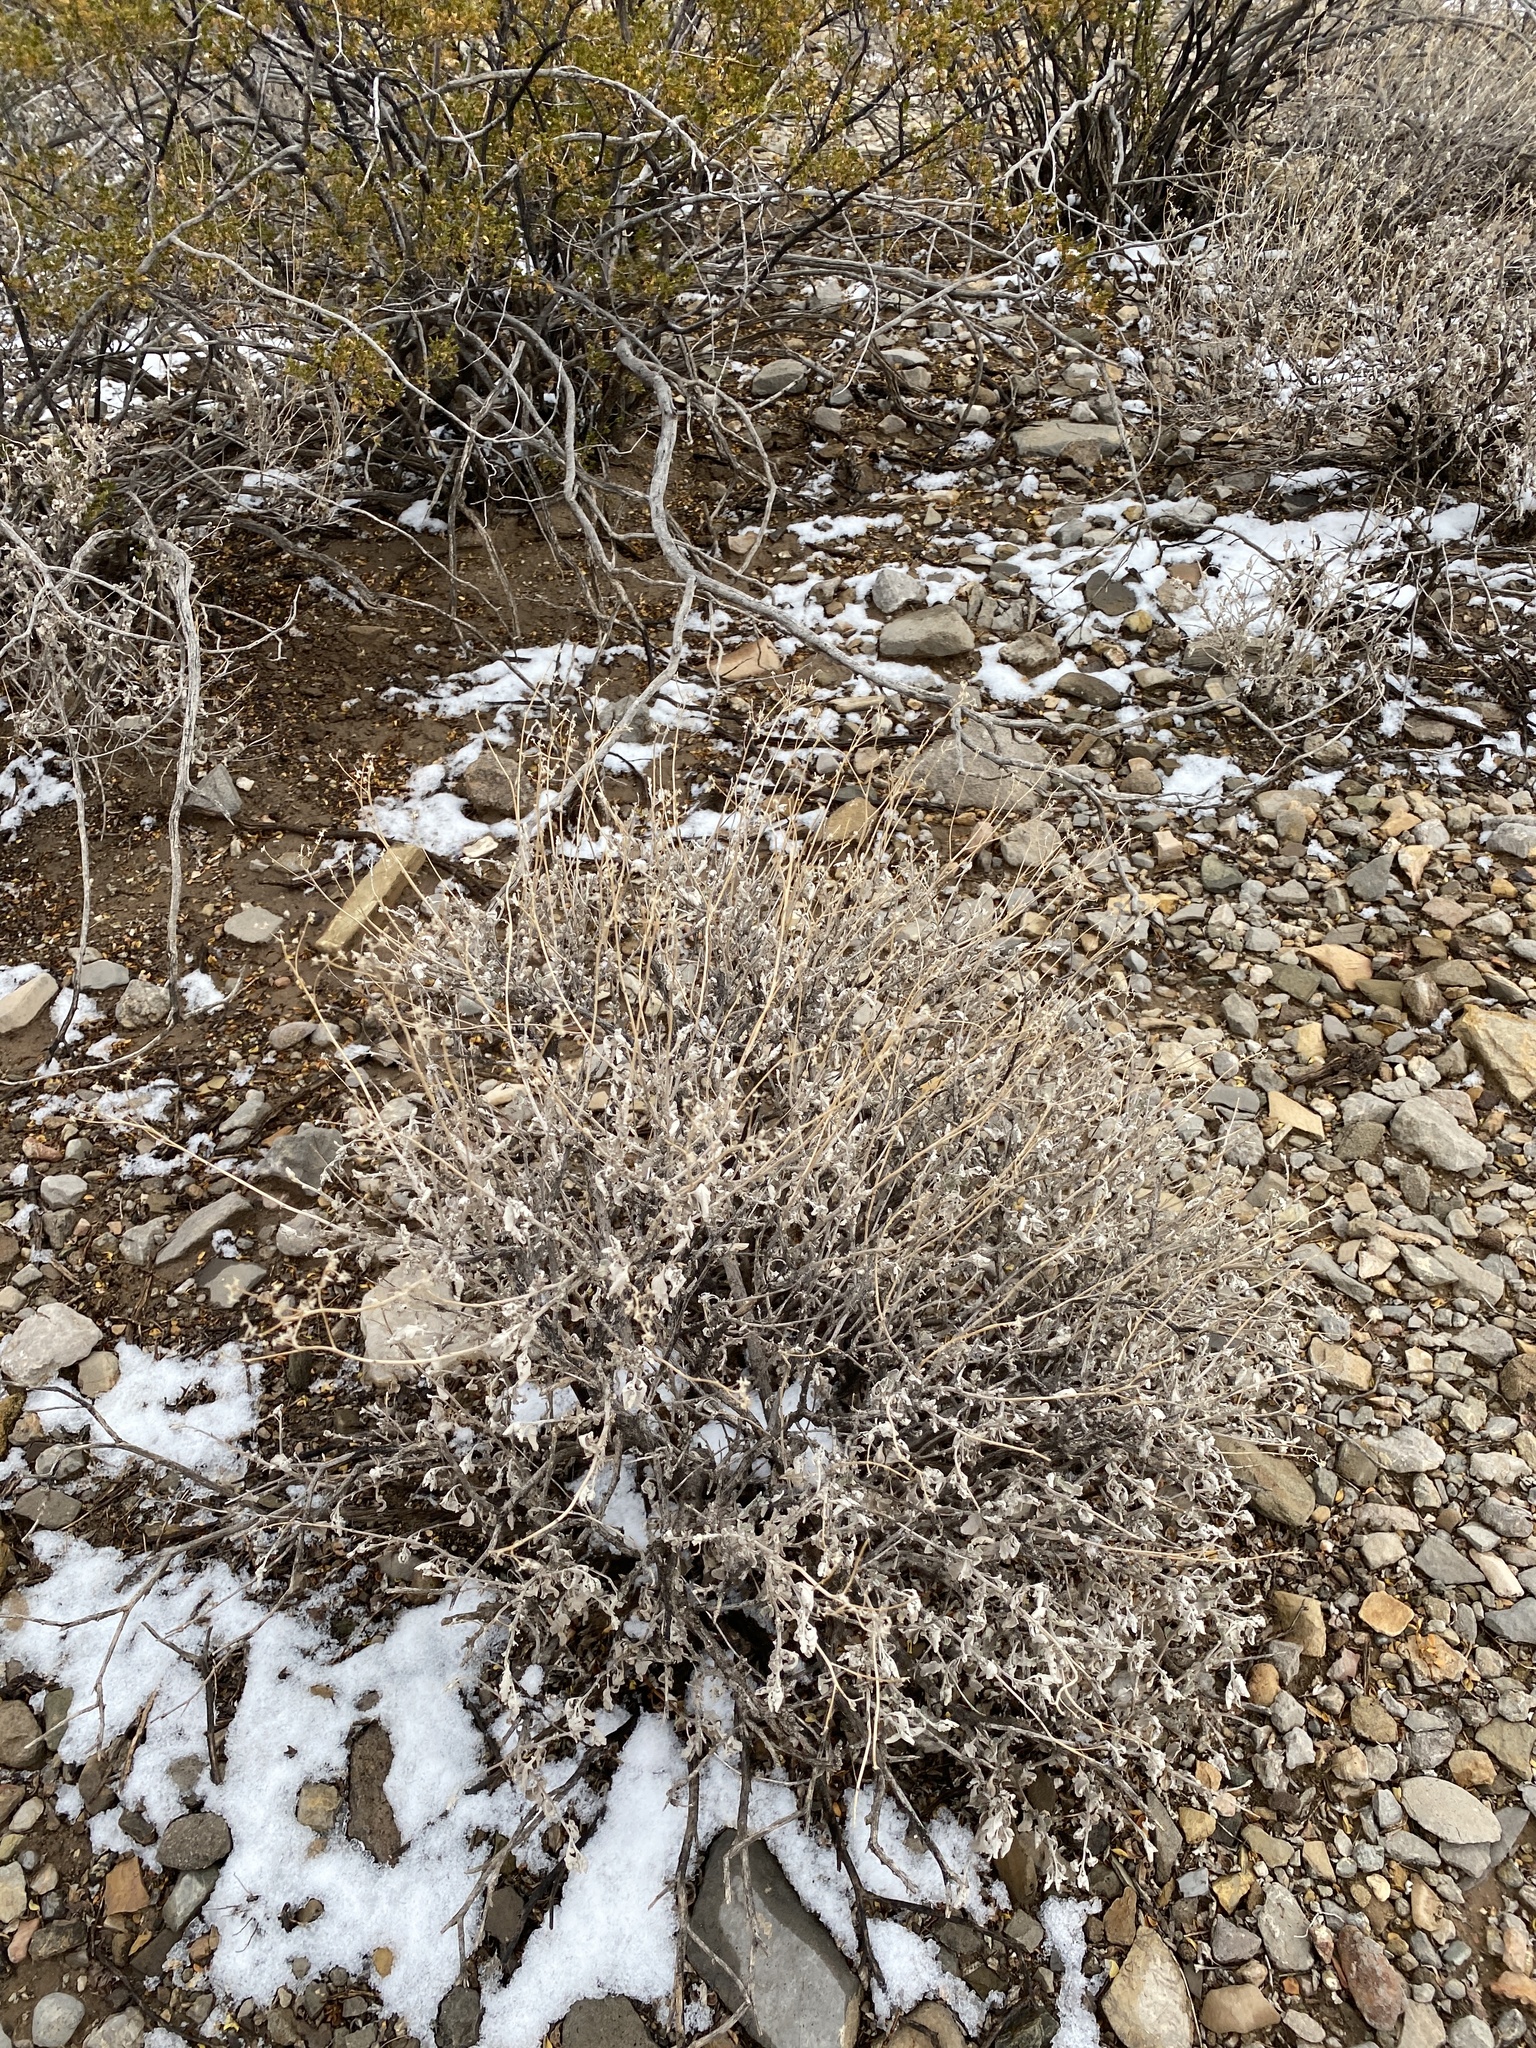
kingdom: Plantae
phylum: Tracheophyta
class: Magnoliopsida
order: Asterales
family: Asteraceae
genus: Parthenium
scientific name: Parthenium incanum
